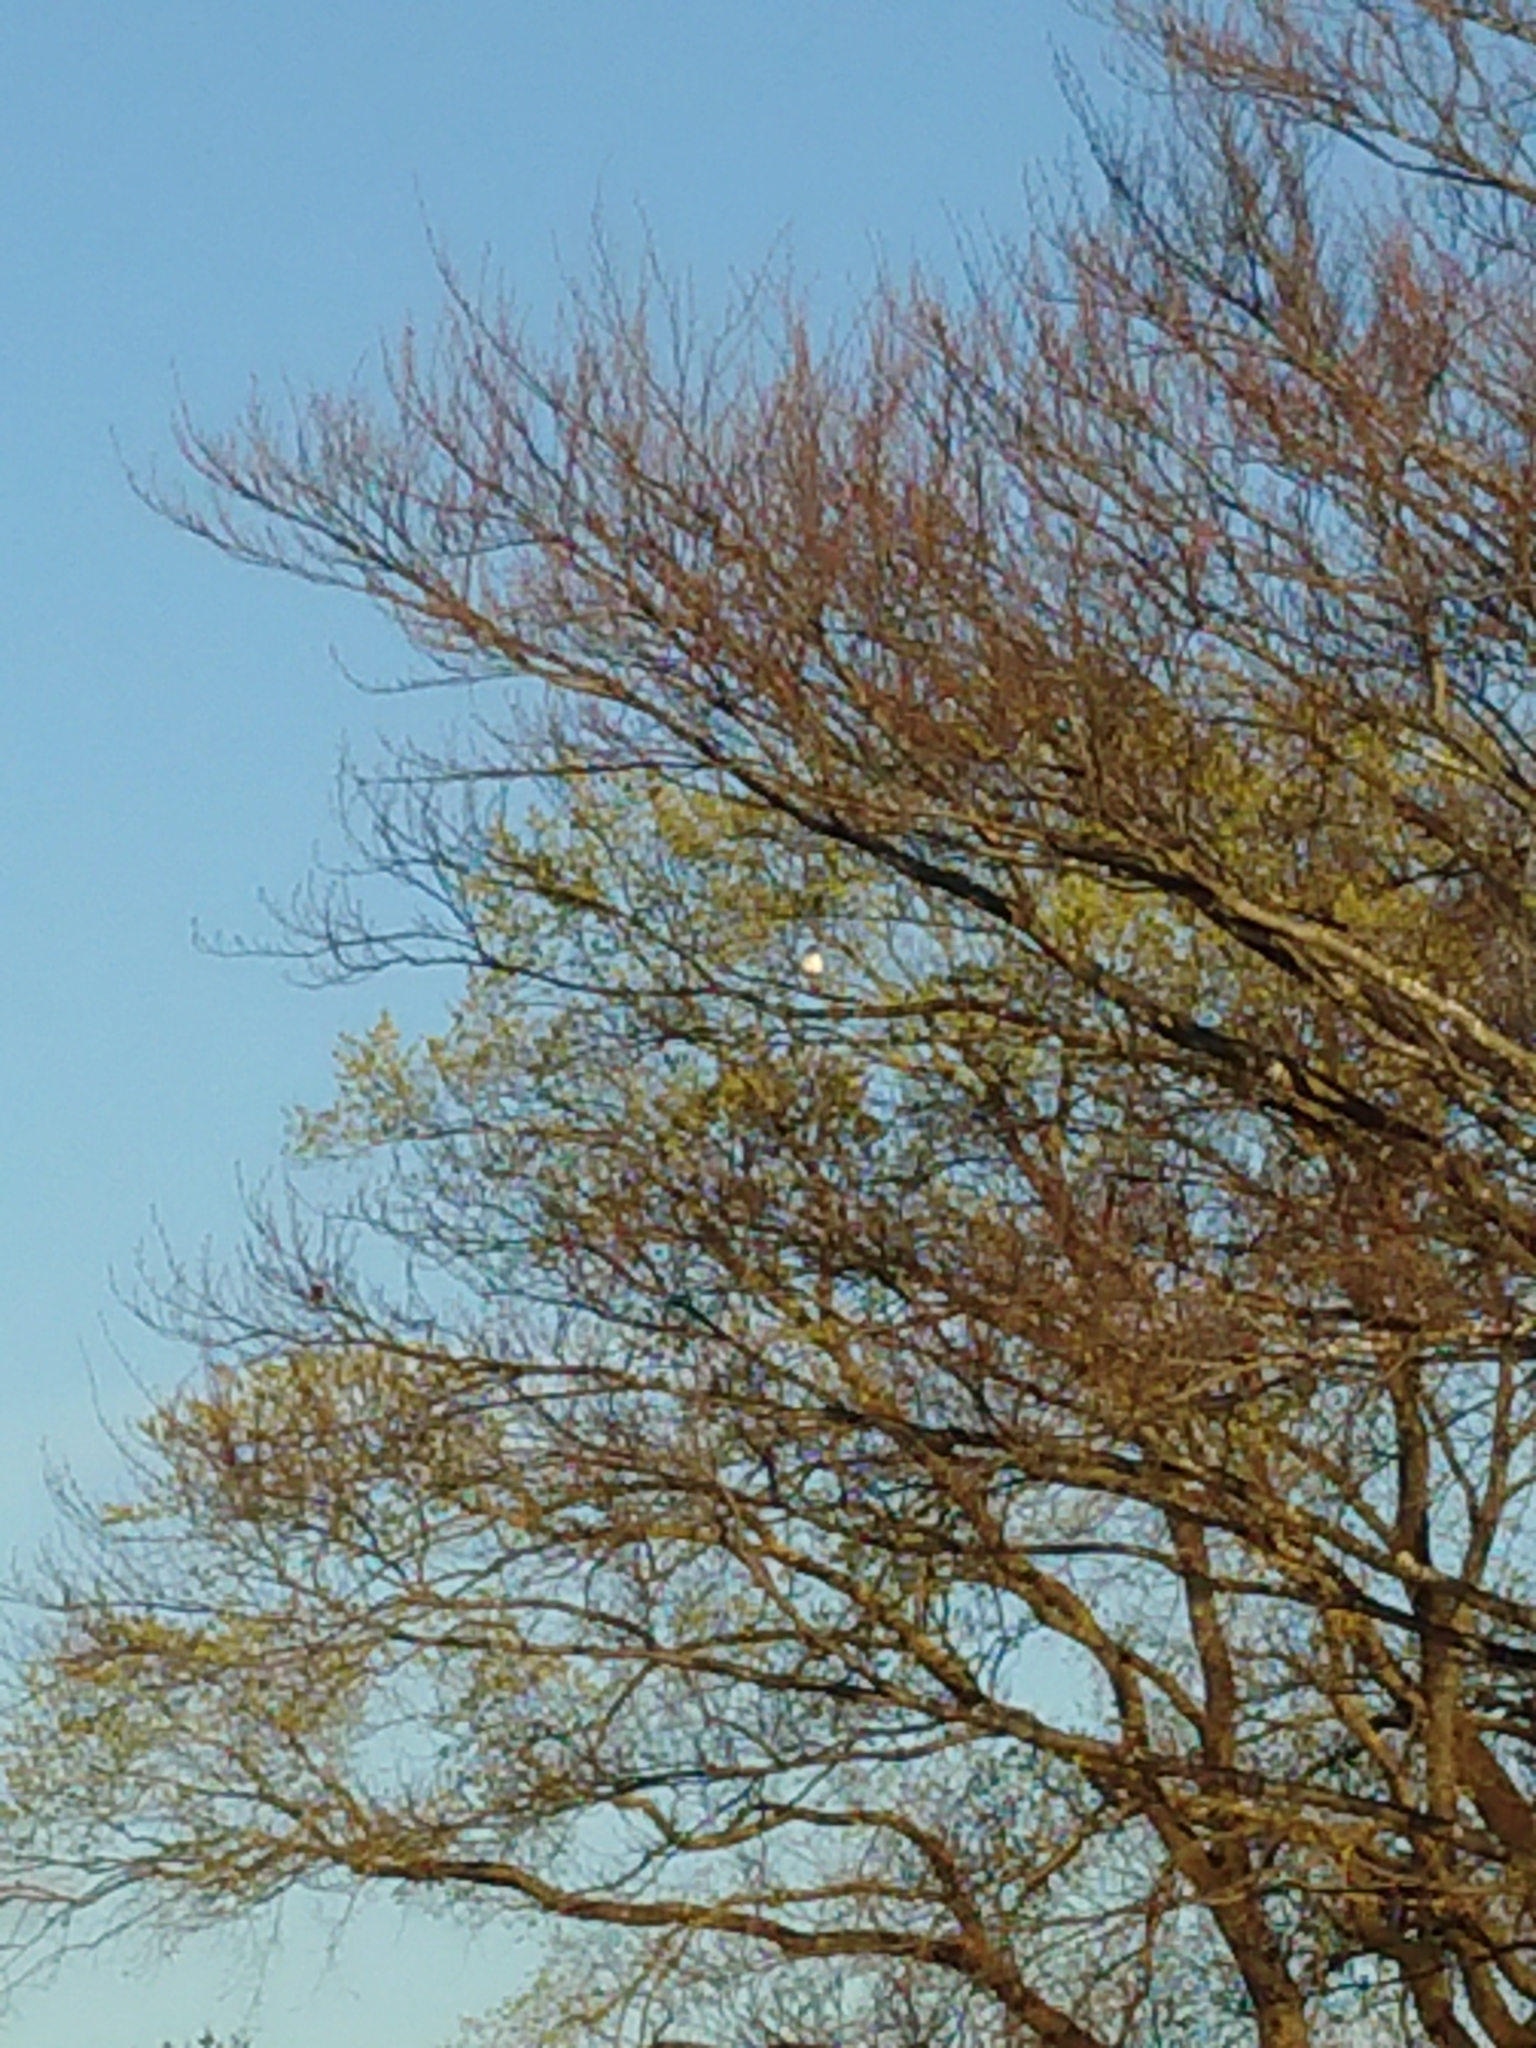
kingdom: Animalia
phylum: Chordata
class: Aves
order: Columbiformes
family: Columbidae
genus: Hemiphaga
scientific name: Hemiphaga novaeseelandiae
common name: New zealand pigeon
